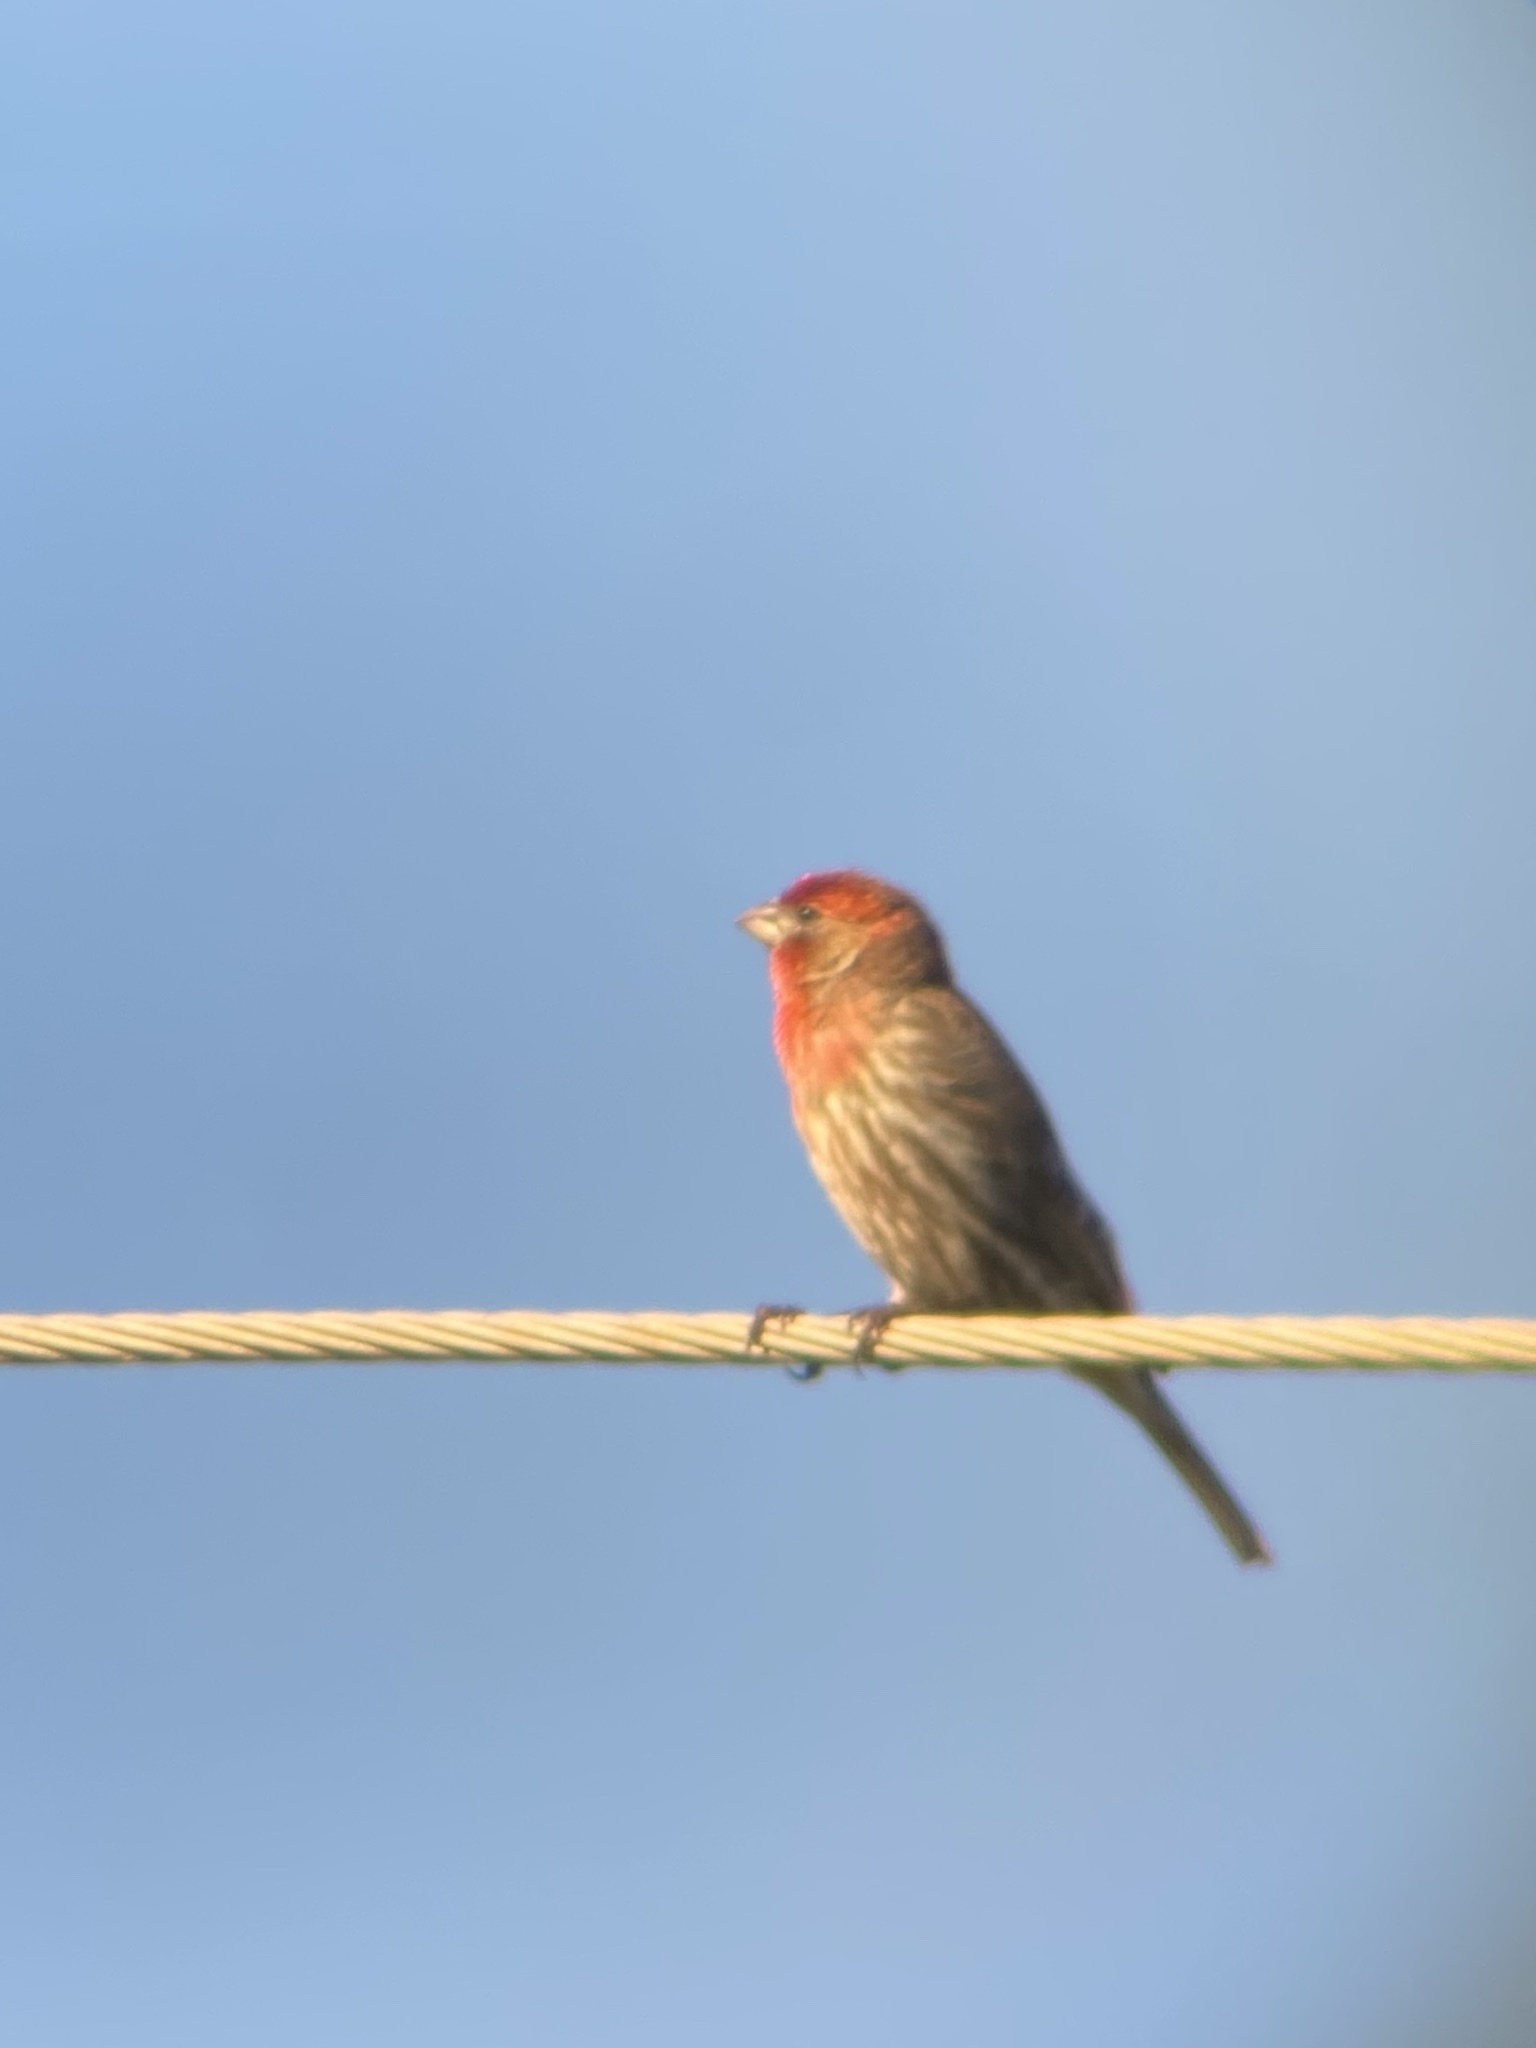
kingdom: Animalia
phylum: Chordata
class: Aves
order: Passeriformes
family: Fringillidae
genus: Haemorhous
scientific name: Haemorhous mexicanus
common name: House finch
